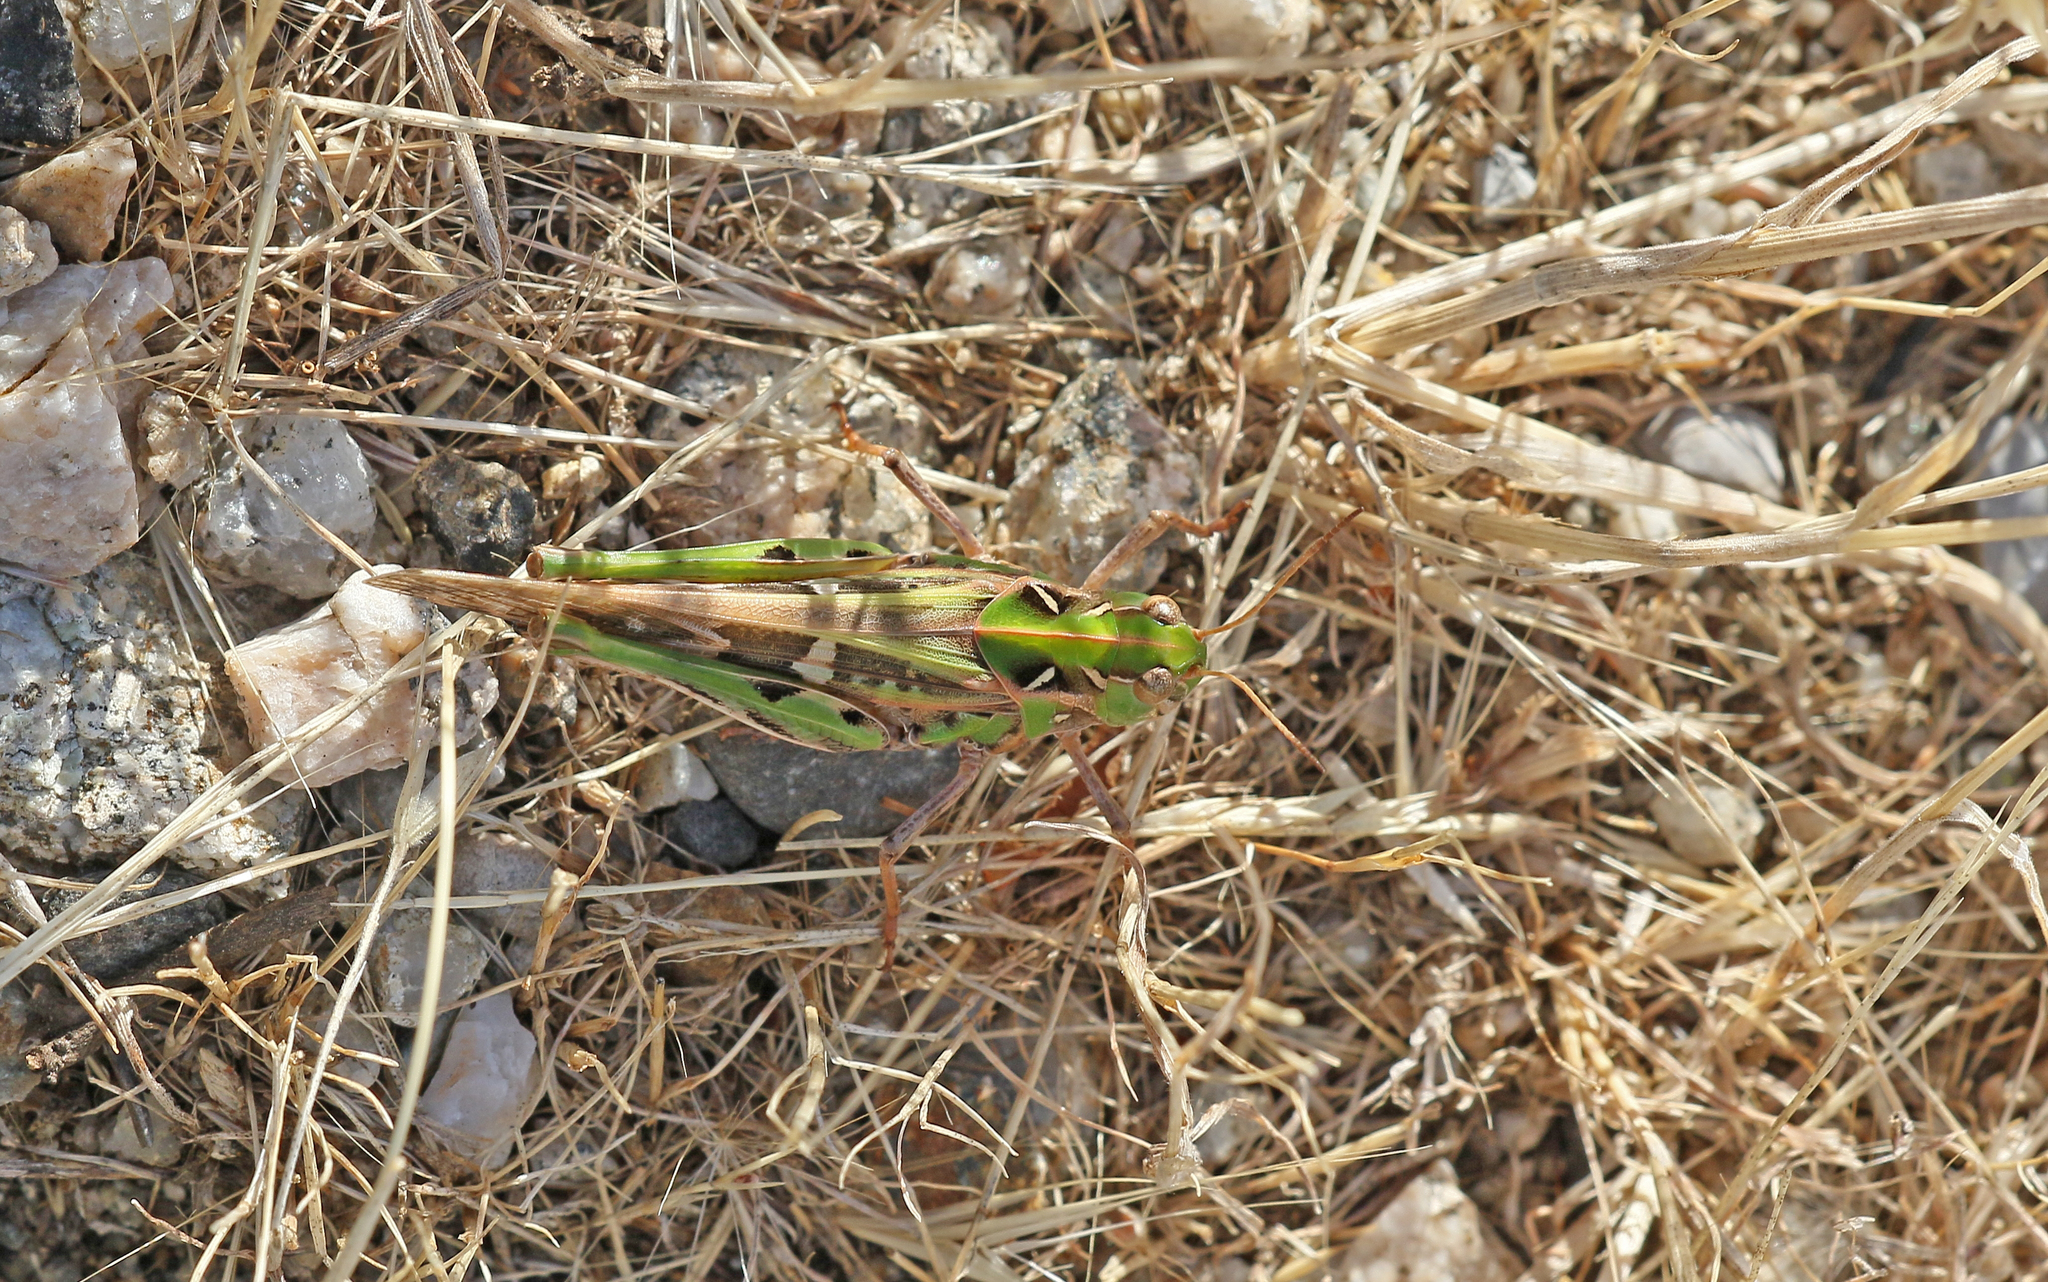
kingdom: Animalia
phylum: Arthropoda
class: Insecta
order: Orthoptera
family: Acrididae
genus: Oedaleus
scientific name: Oedaleus decorus
